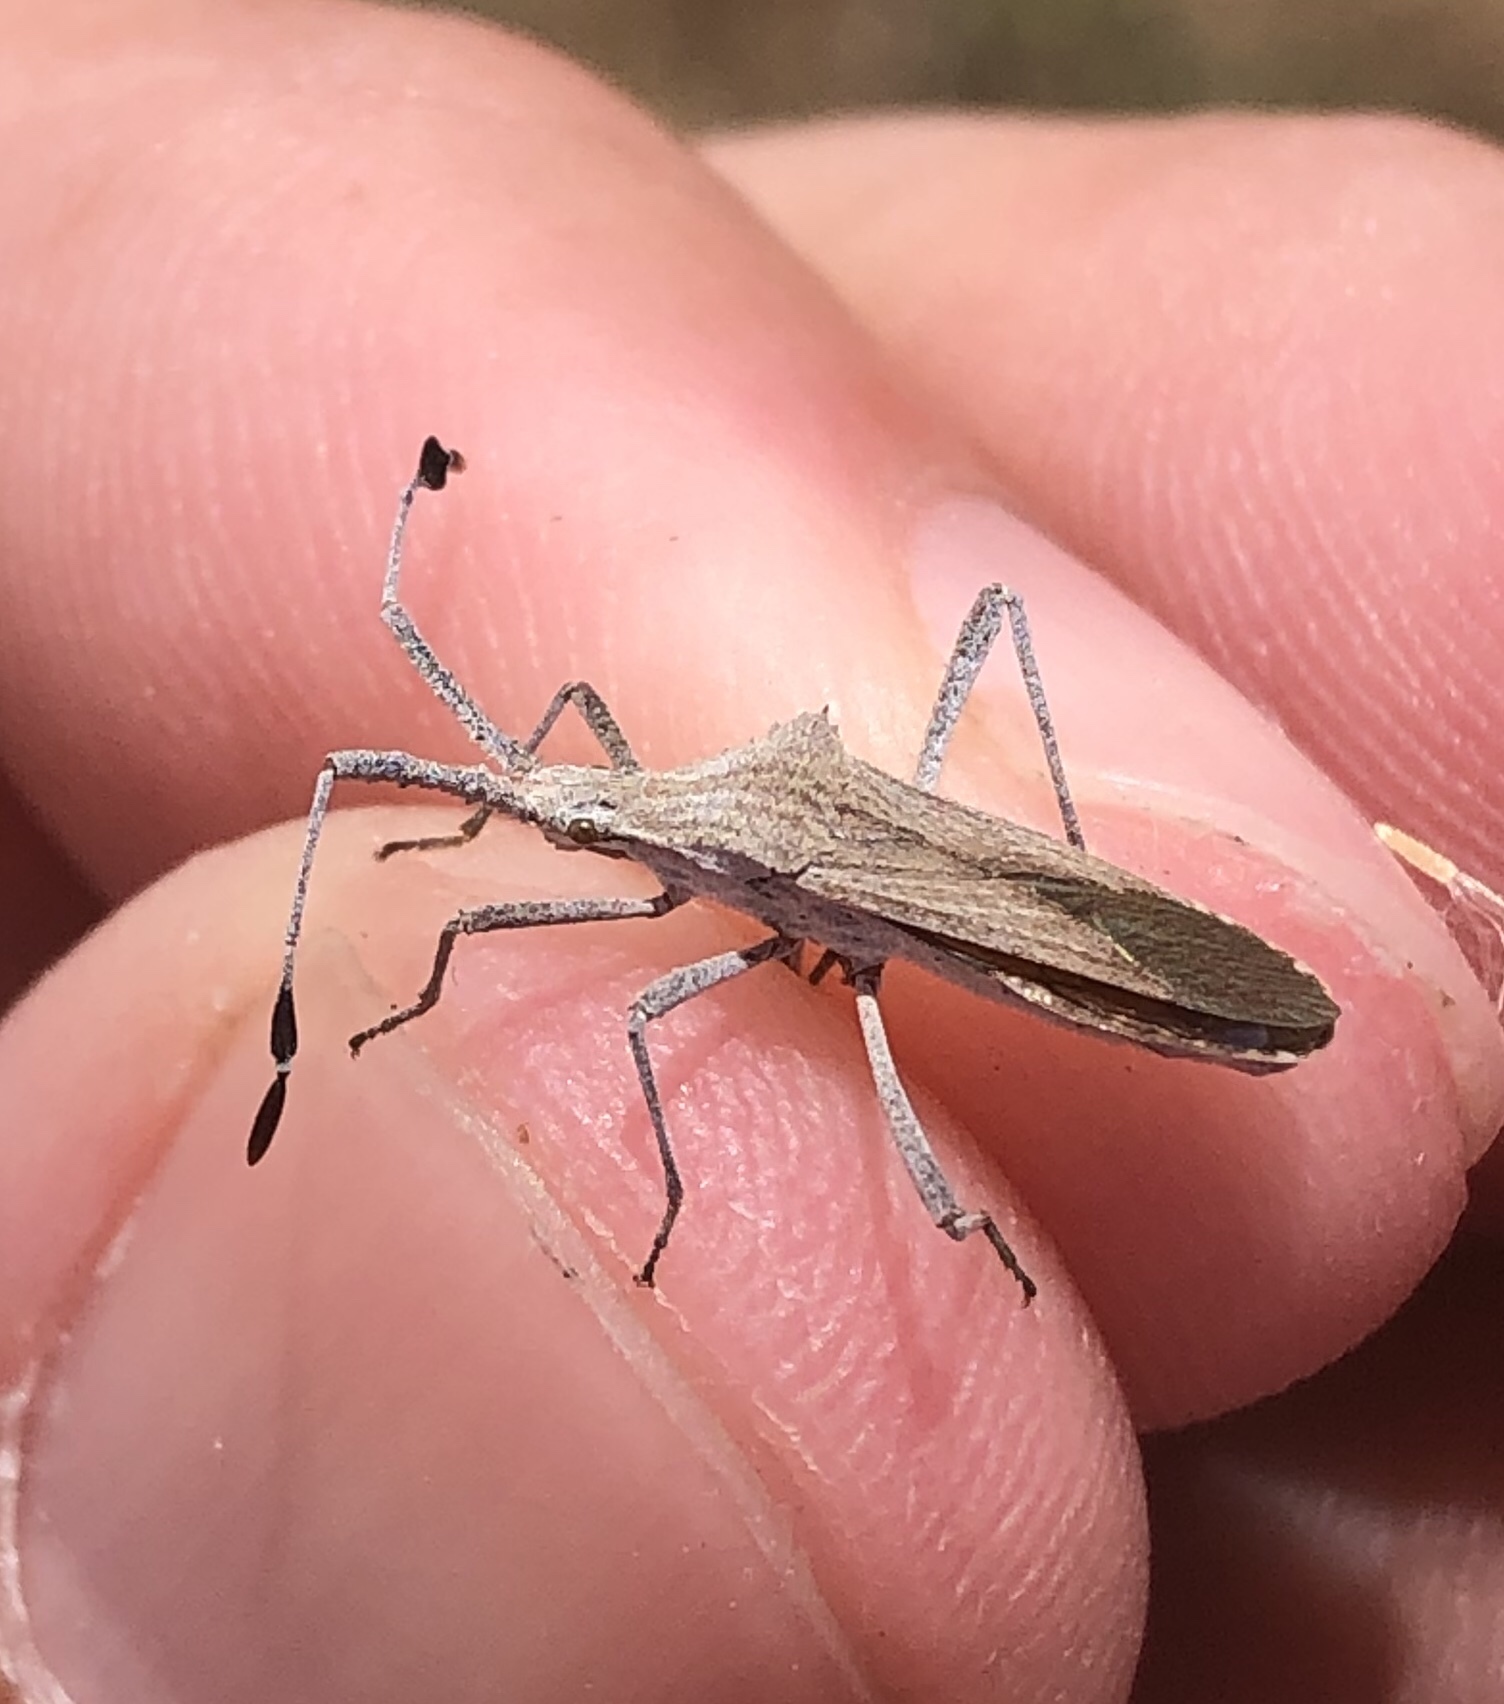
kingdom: Animalia
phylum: Arthropoda
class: Insecta
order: Hemiptera
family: Coreidae
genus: Chariesterus
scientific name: Chariesterus antennator
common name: Flat horned coreid
